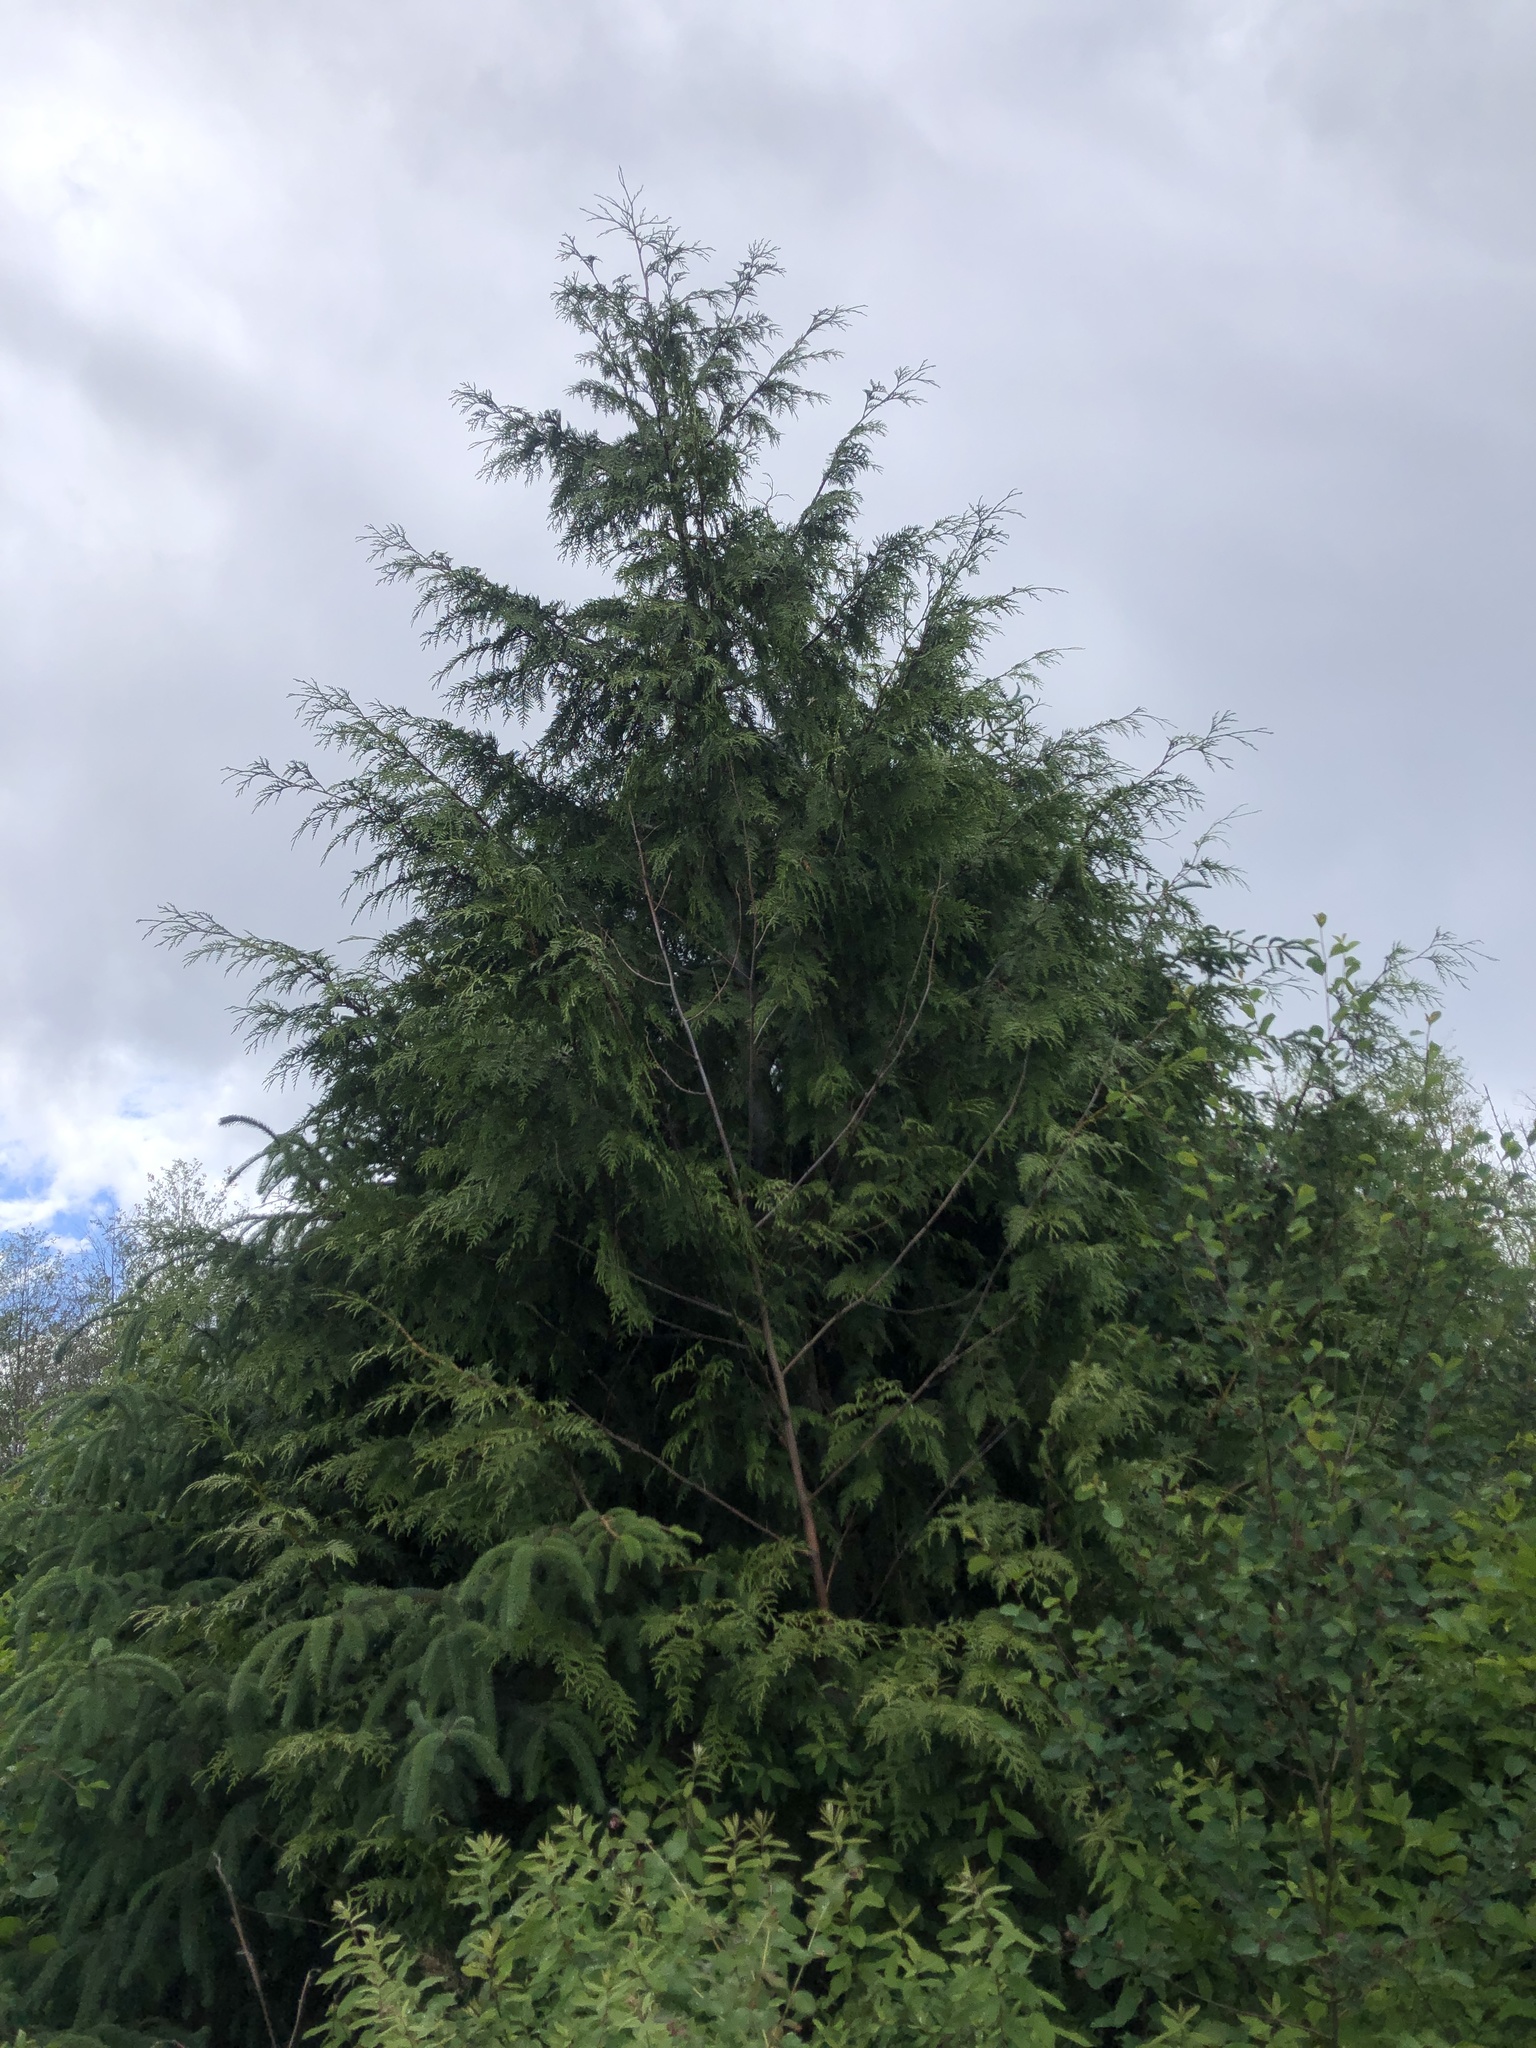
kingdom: Plantae
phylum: Tracheophyta
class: Pinopsida
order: Pinales
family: Cupressaceae
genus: Thuja
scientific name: Thuja plicata
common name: Western red-cedar
